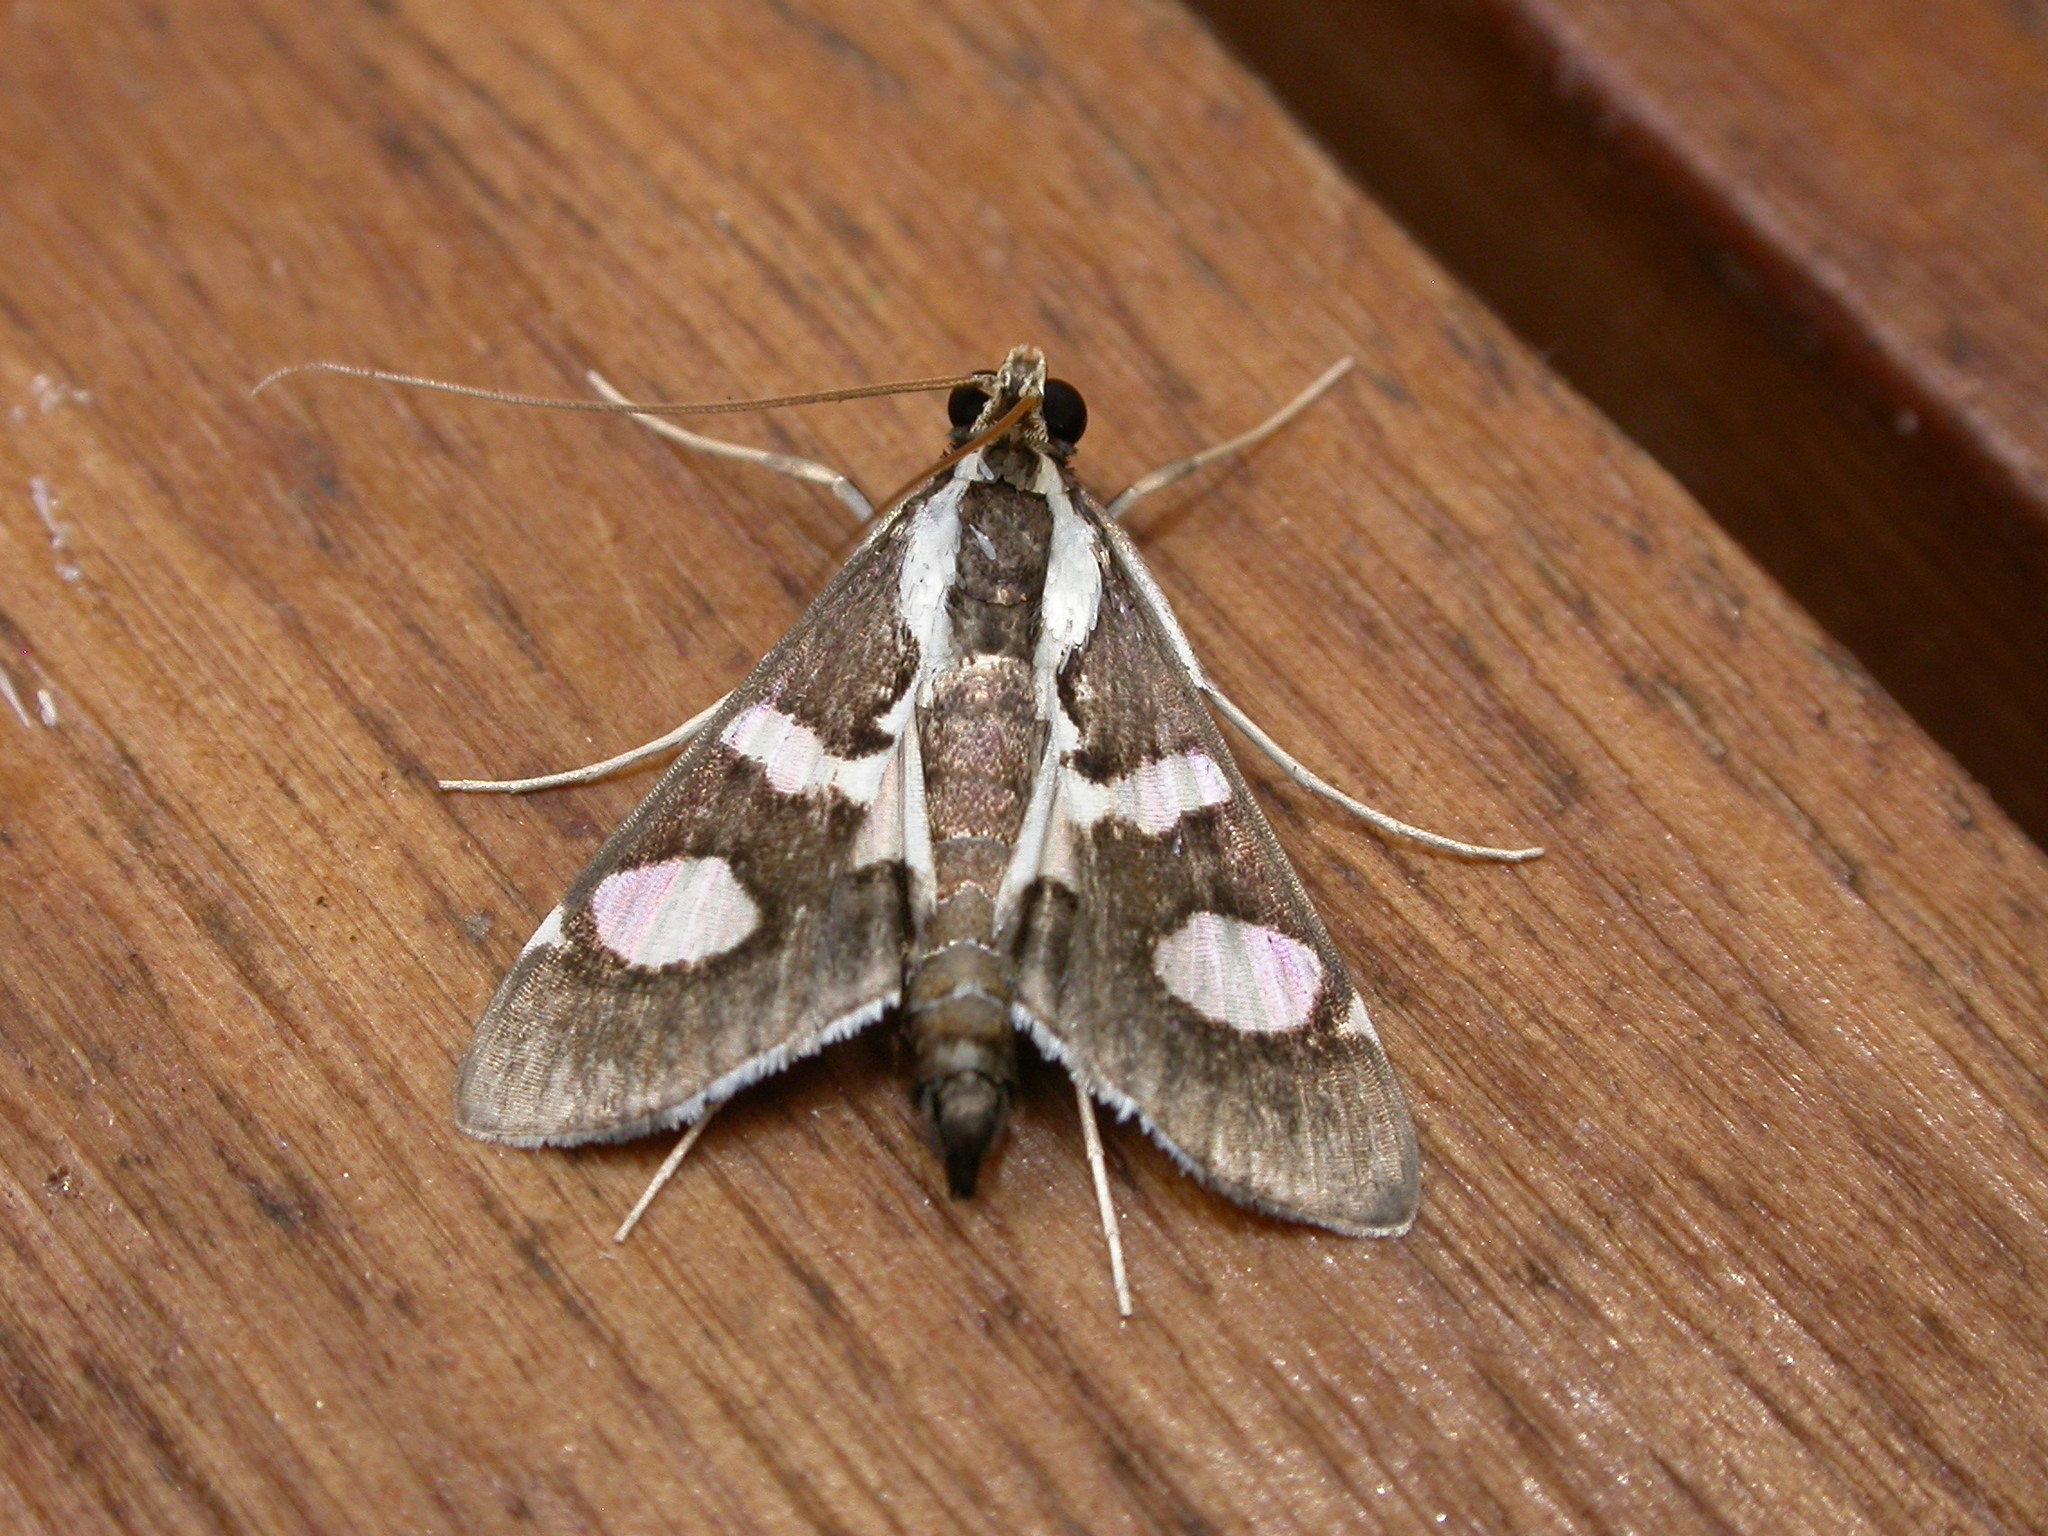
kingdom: Animalia
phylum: Arthropoda
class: Insecta
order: Lepidoptera
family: Crambidae
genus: Glyphodes
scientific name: Glyphodes bicolor
